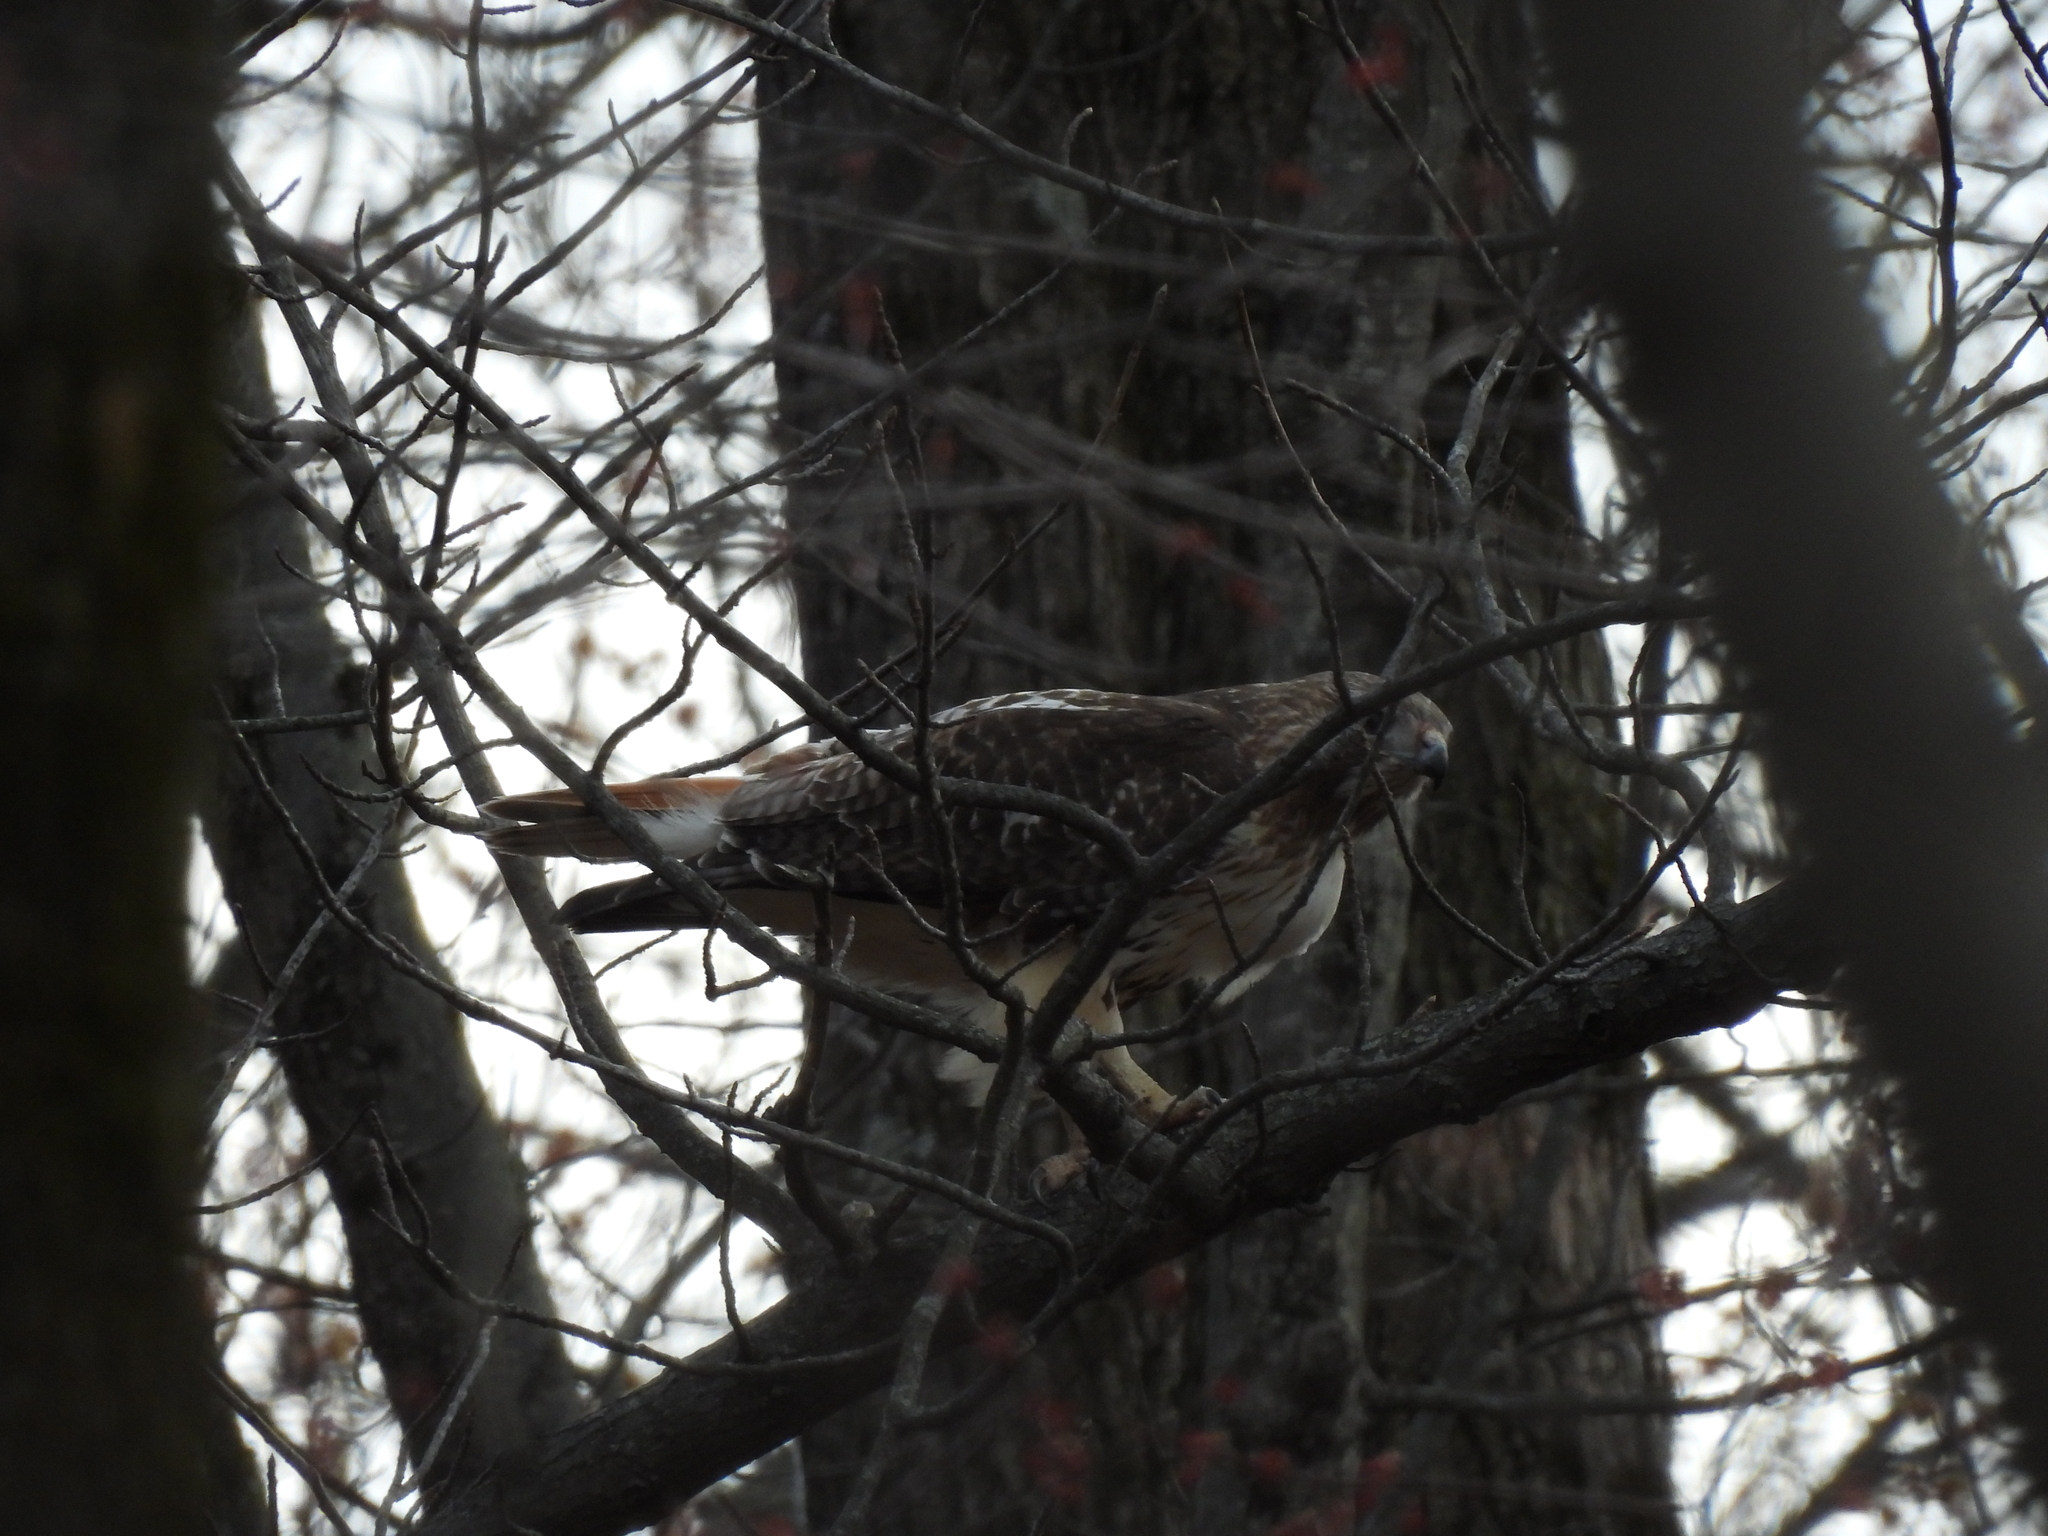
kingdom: Animalia
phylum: Chordata
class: Aves
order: Accipitriformes
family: Accipitridae
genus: Buteo
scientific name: Buteo jamaicensis
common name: Red-tailed hawk
